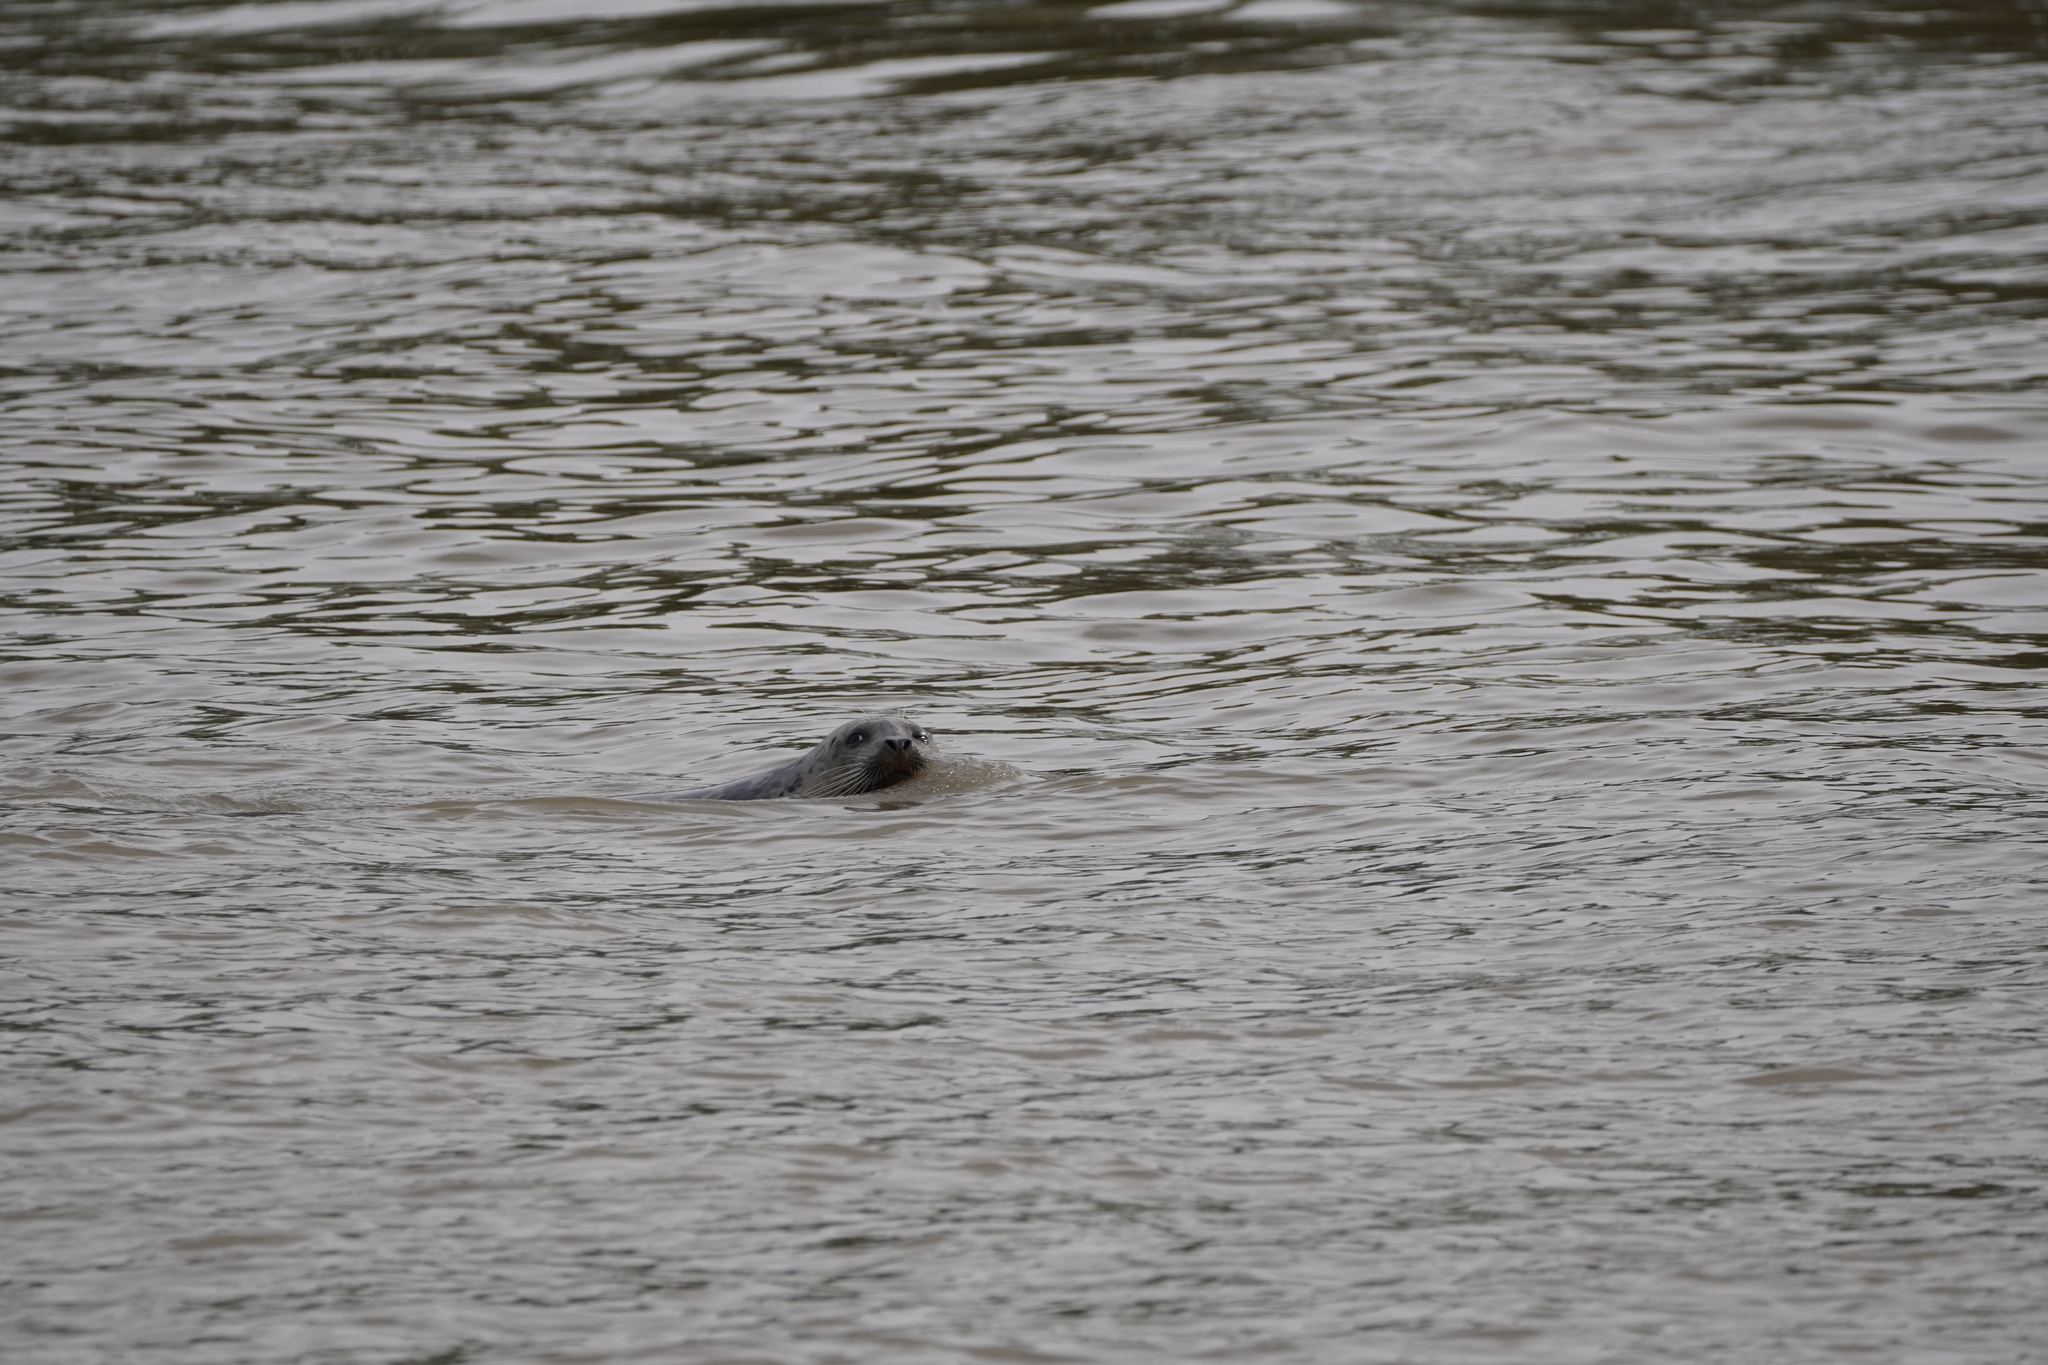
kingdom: Animalia
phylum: Chordata
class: Mammalia
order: Carnivora
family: Phocidae
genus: Phoca
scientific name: Phoca vitulina
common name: Harbor seal
